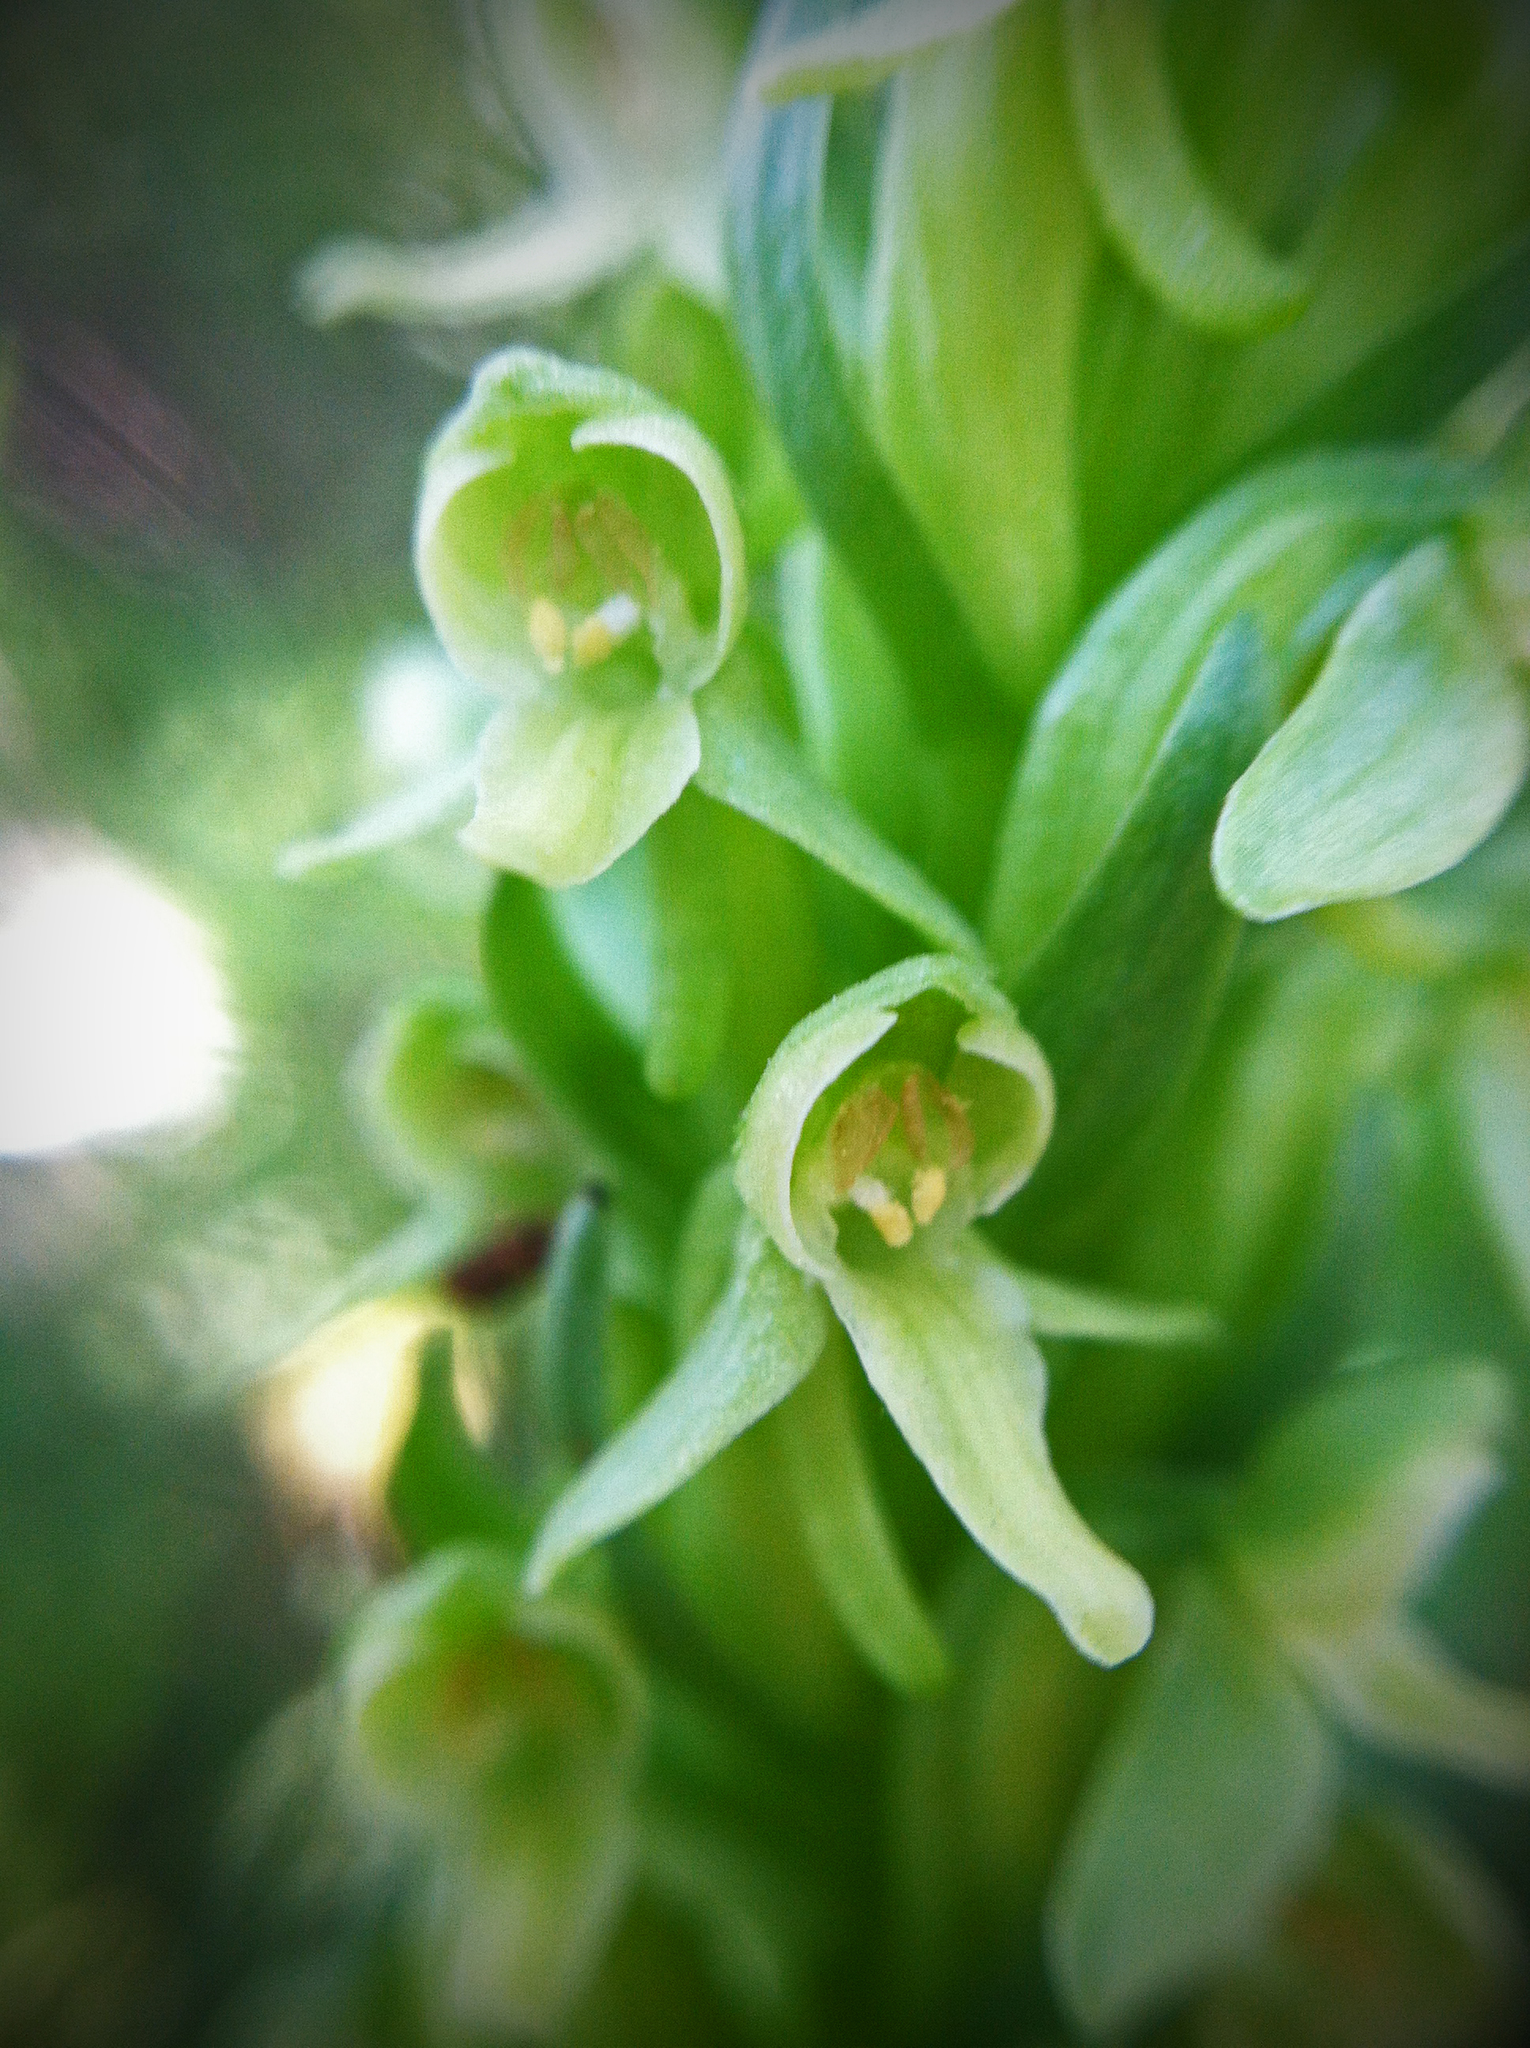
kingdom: Plantae
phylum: Tracheophyta
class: Liliopsida
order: Asparagales
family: Orchidaceae
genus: Platanthera
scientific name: Platanthera huronensis
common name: Fragrant green orchid
